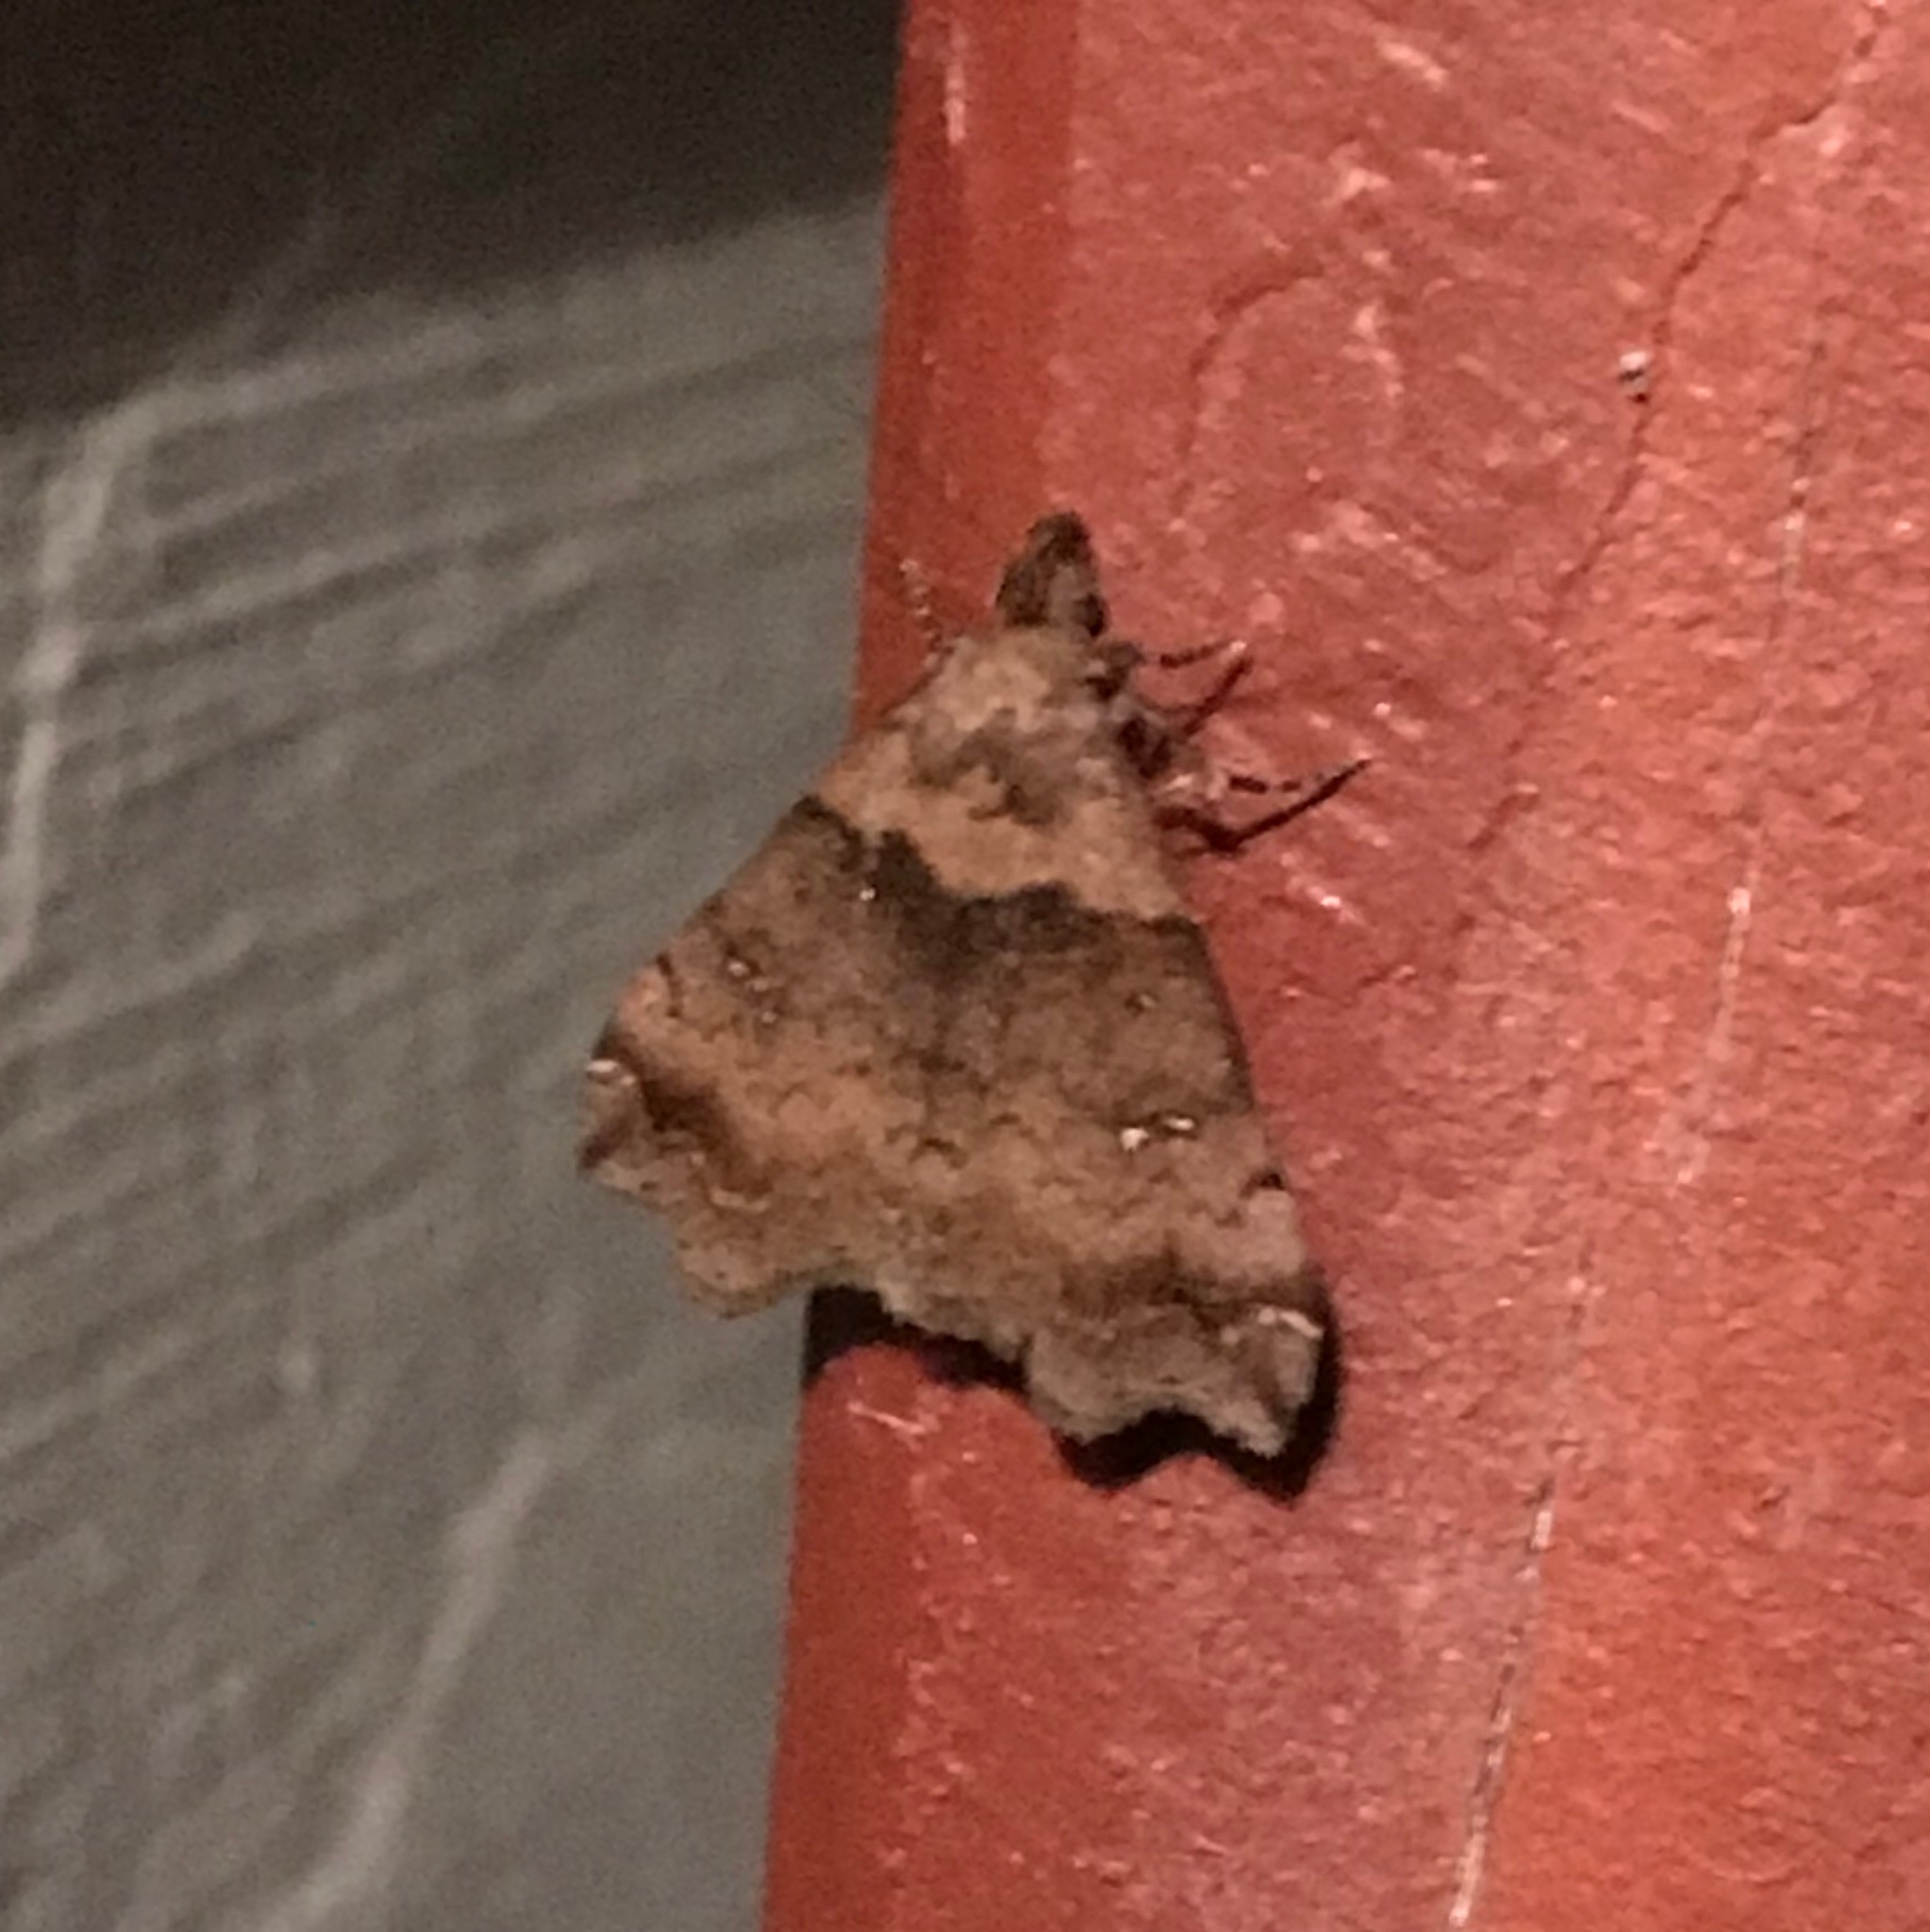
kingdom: Animalia
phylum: Arthropoda
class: Insecta
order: Lepidoptera
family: Erebidae
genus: Lascoria
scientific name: Lascoria ambigualis
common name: Ambiguous moth
